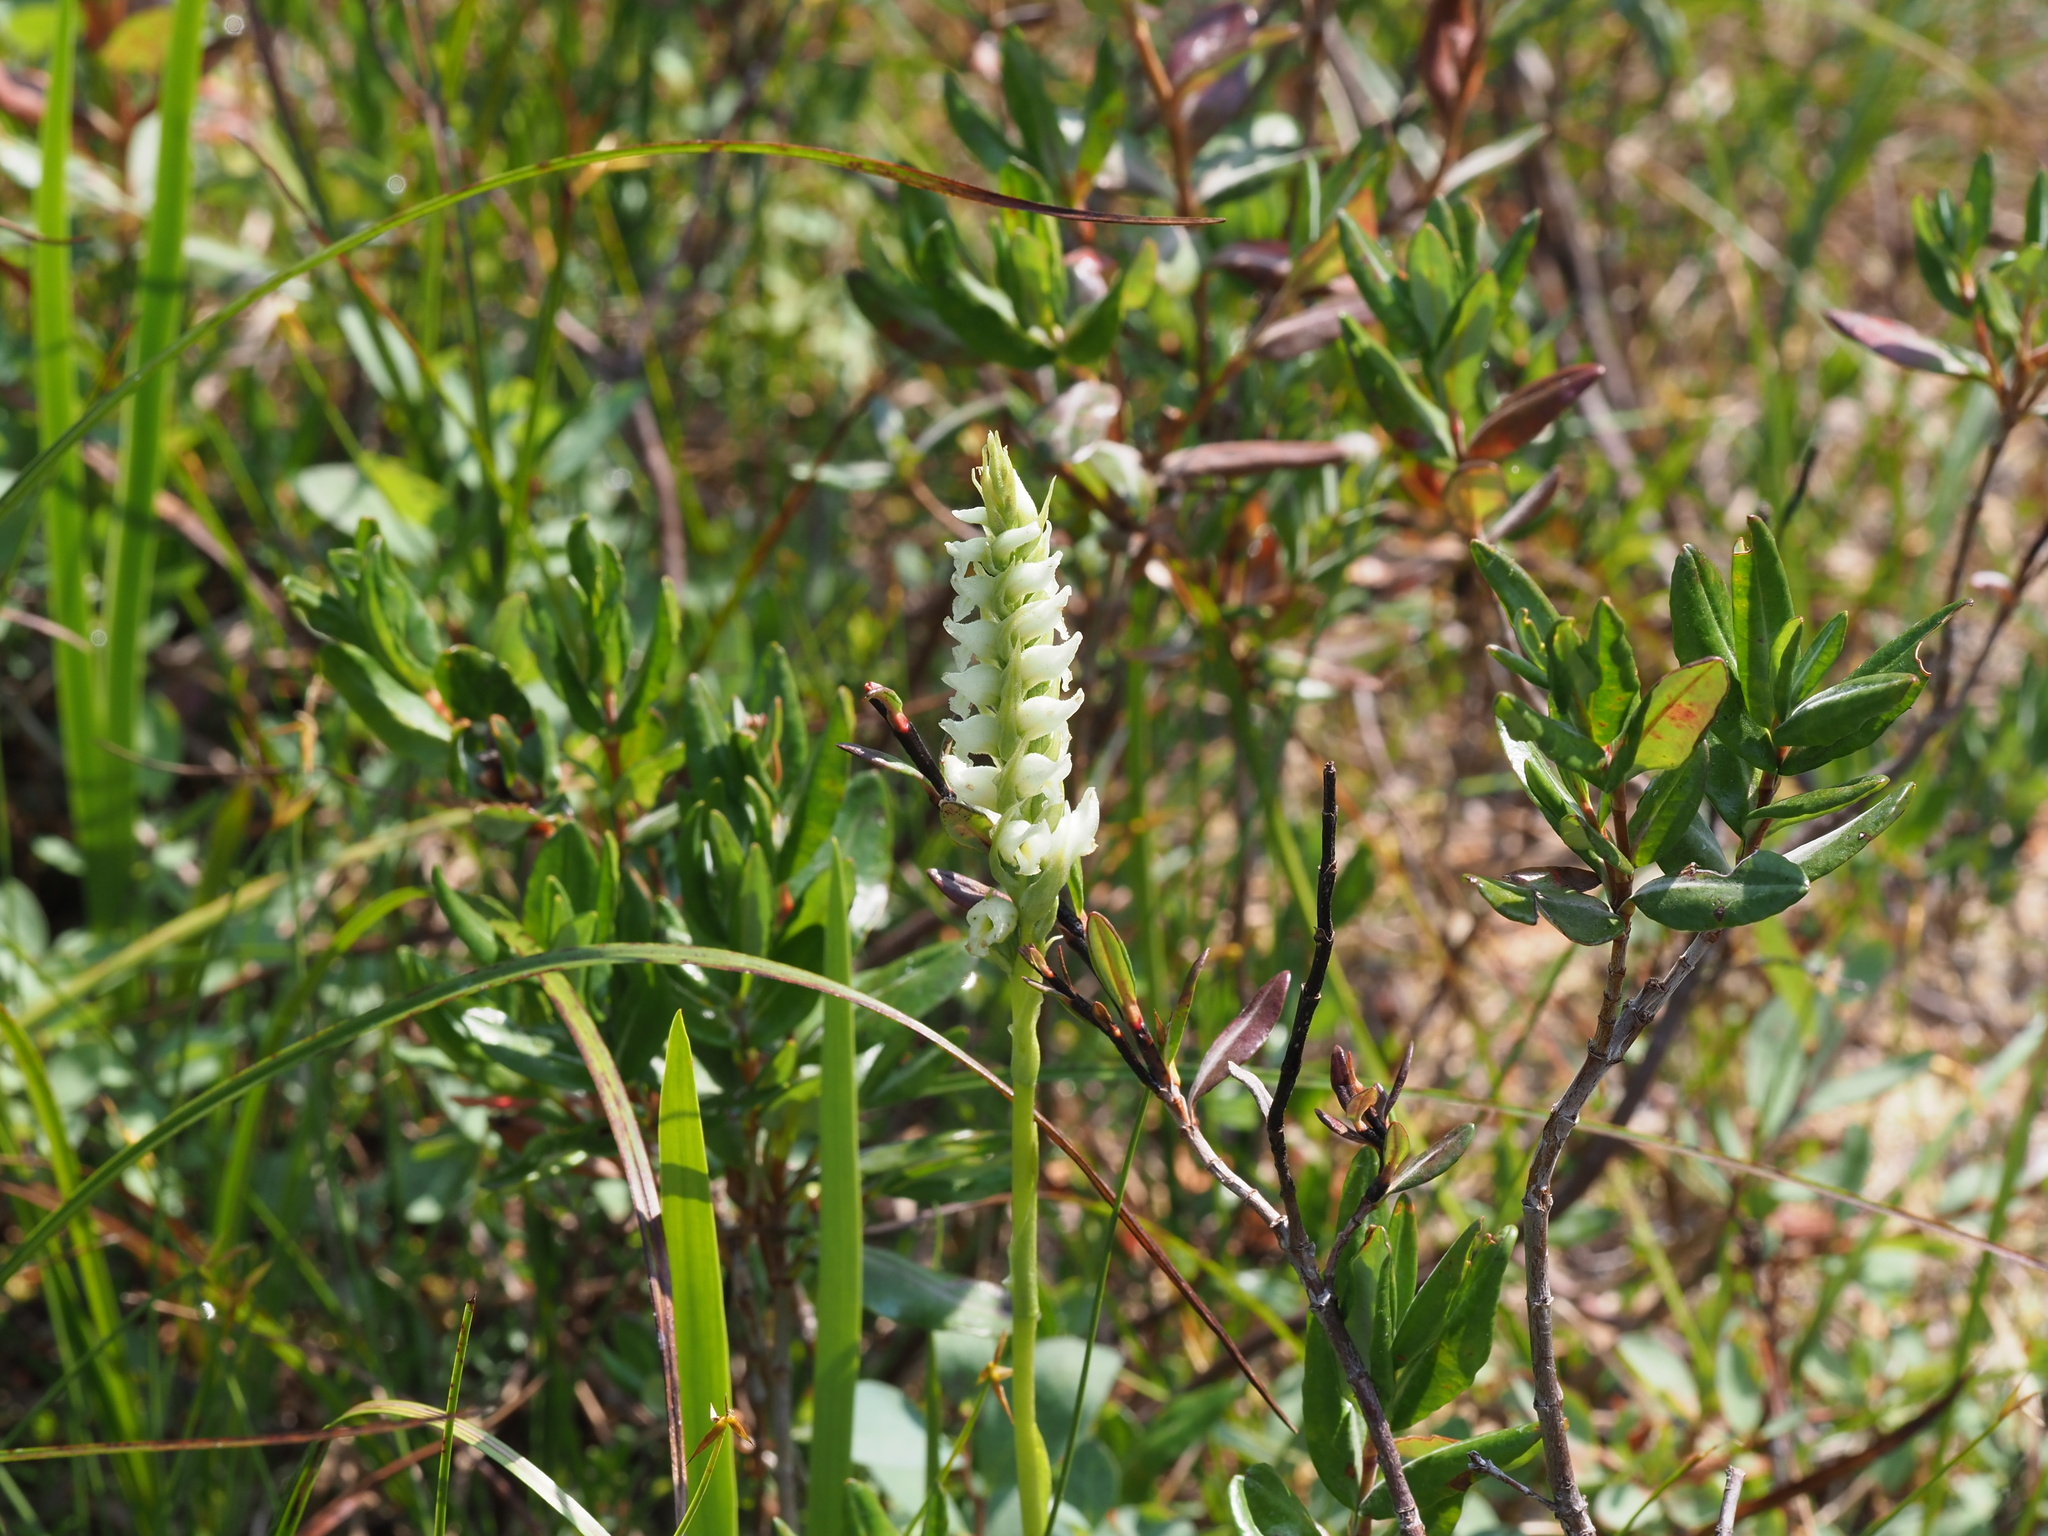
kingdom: Plantae
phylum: Tracheophyta
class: Liliopsida
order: Asparagales
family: Orchidaceae
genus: Spiranthes
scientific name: Spiranthes romanzoffiana
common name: Irish lady's-tresses
